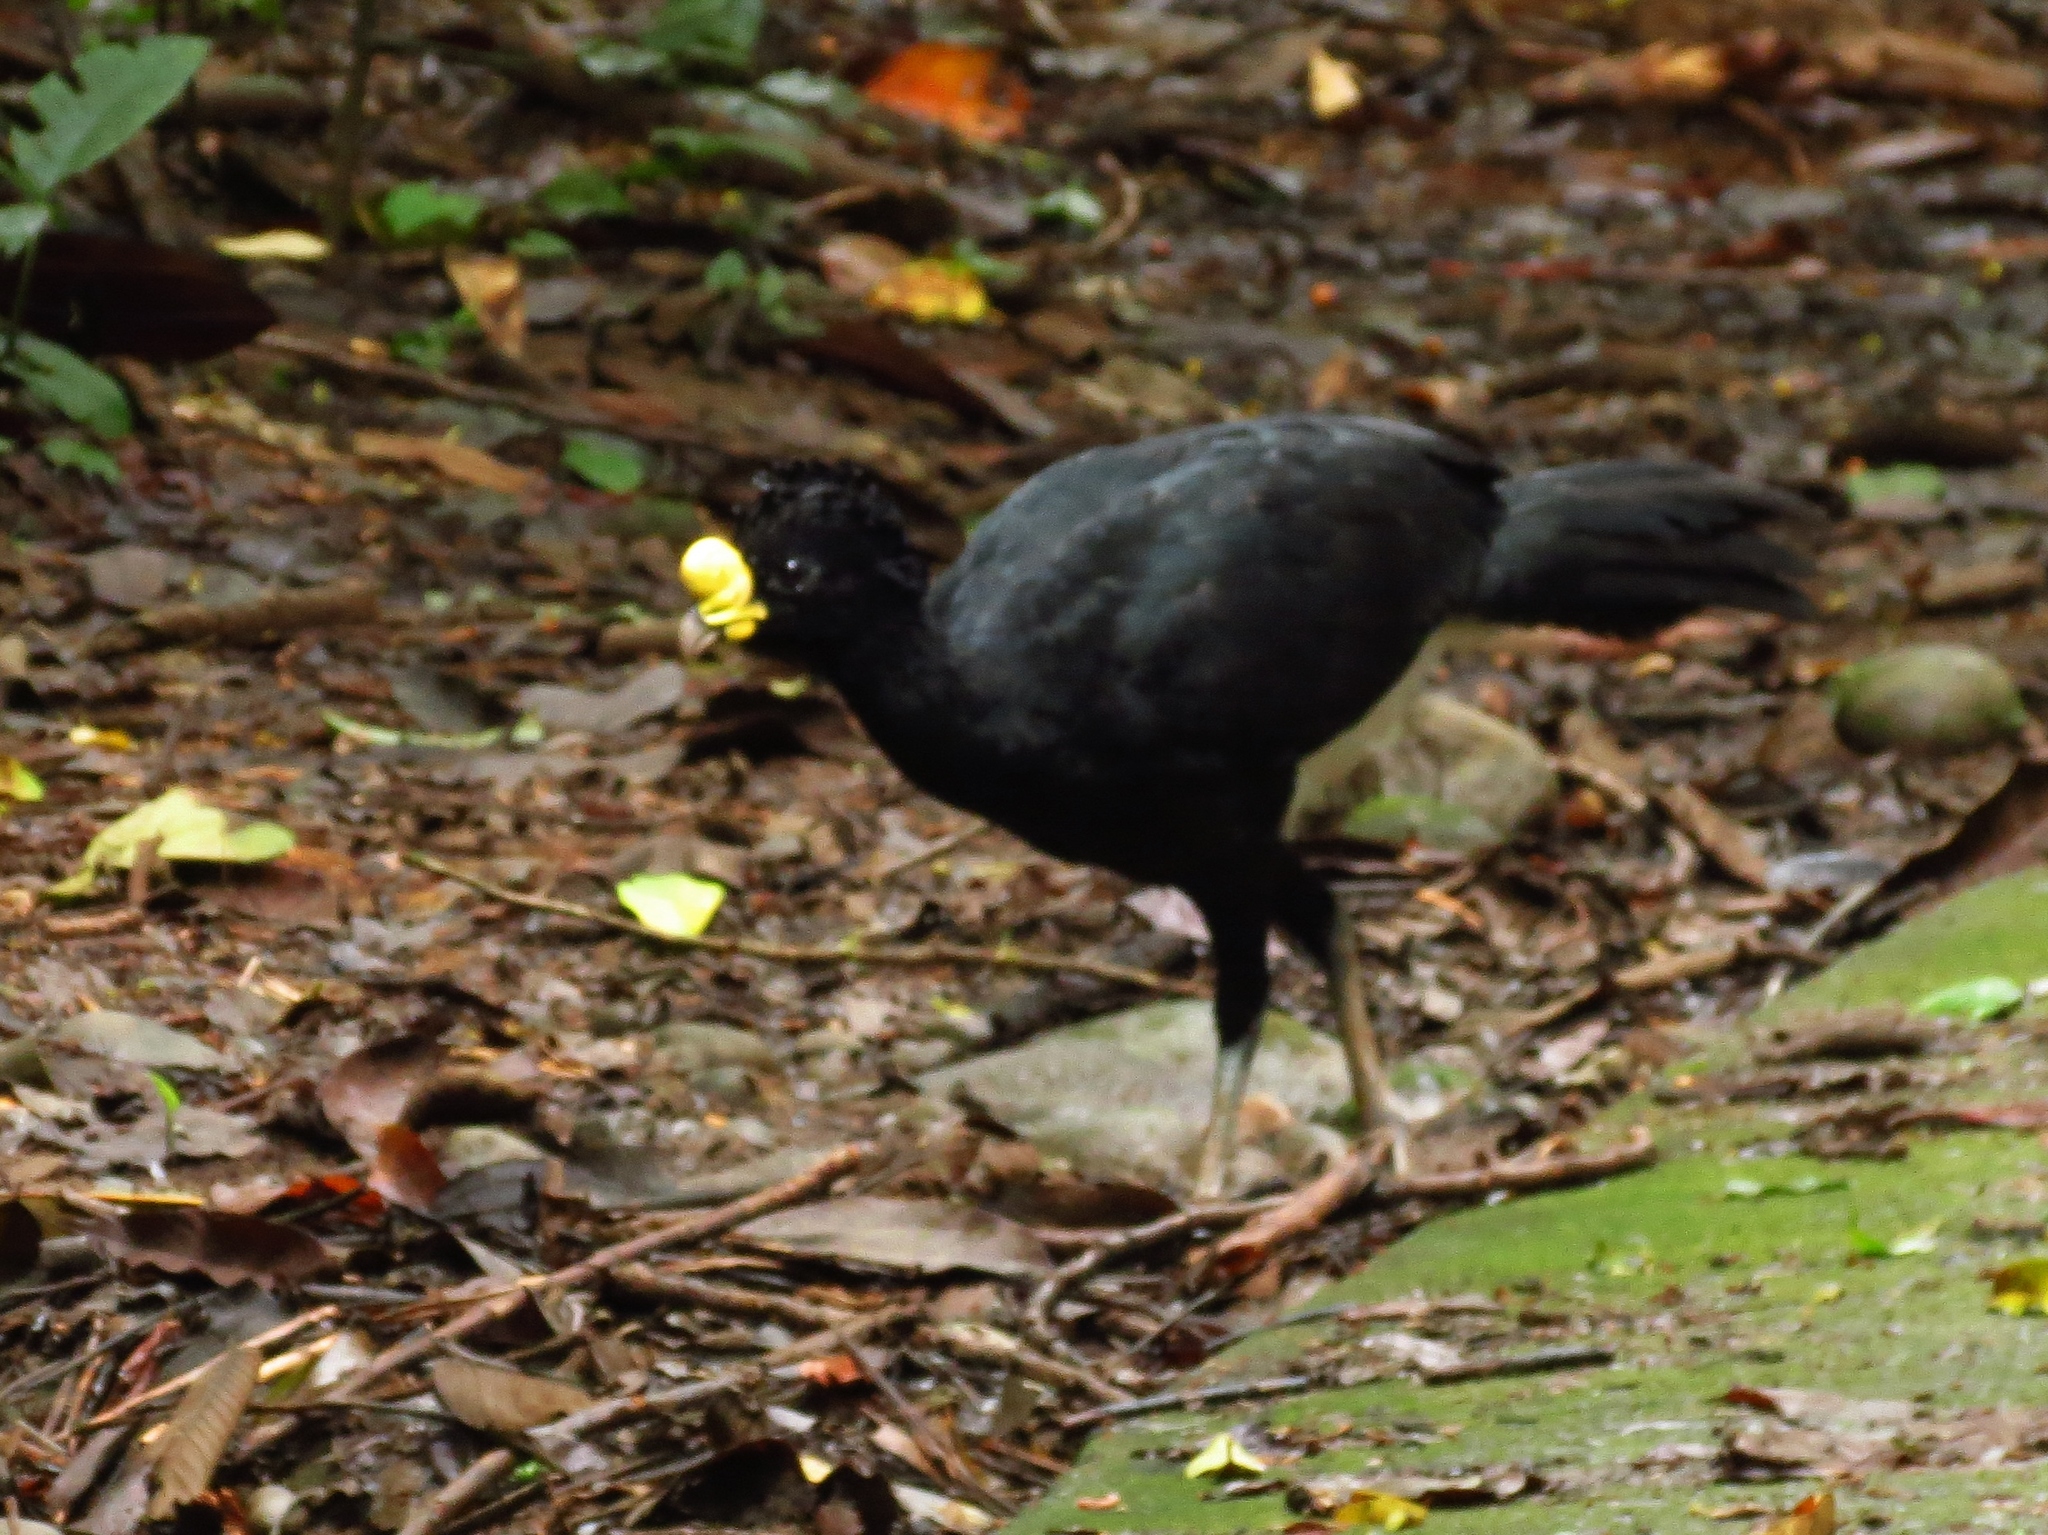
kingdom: Animalia
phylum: Chordata
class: Aves
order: Galliformes
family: Cracidae
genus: Crax
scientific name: Crax rubra
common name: Great curassow
